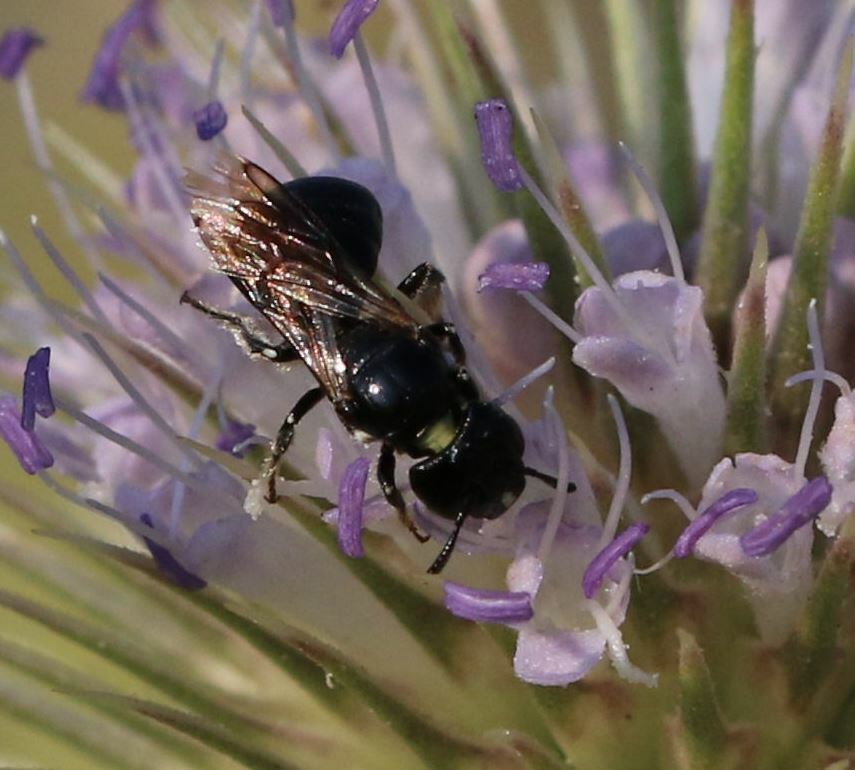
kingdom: Animalia
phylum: Arthropoda
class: Insecta
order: Hymenoptera
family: Apidae
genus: Ceratina
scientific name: Ceratina cucurbitina
